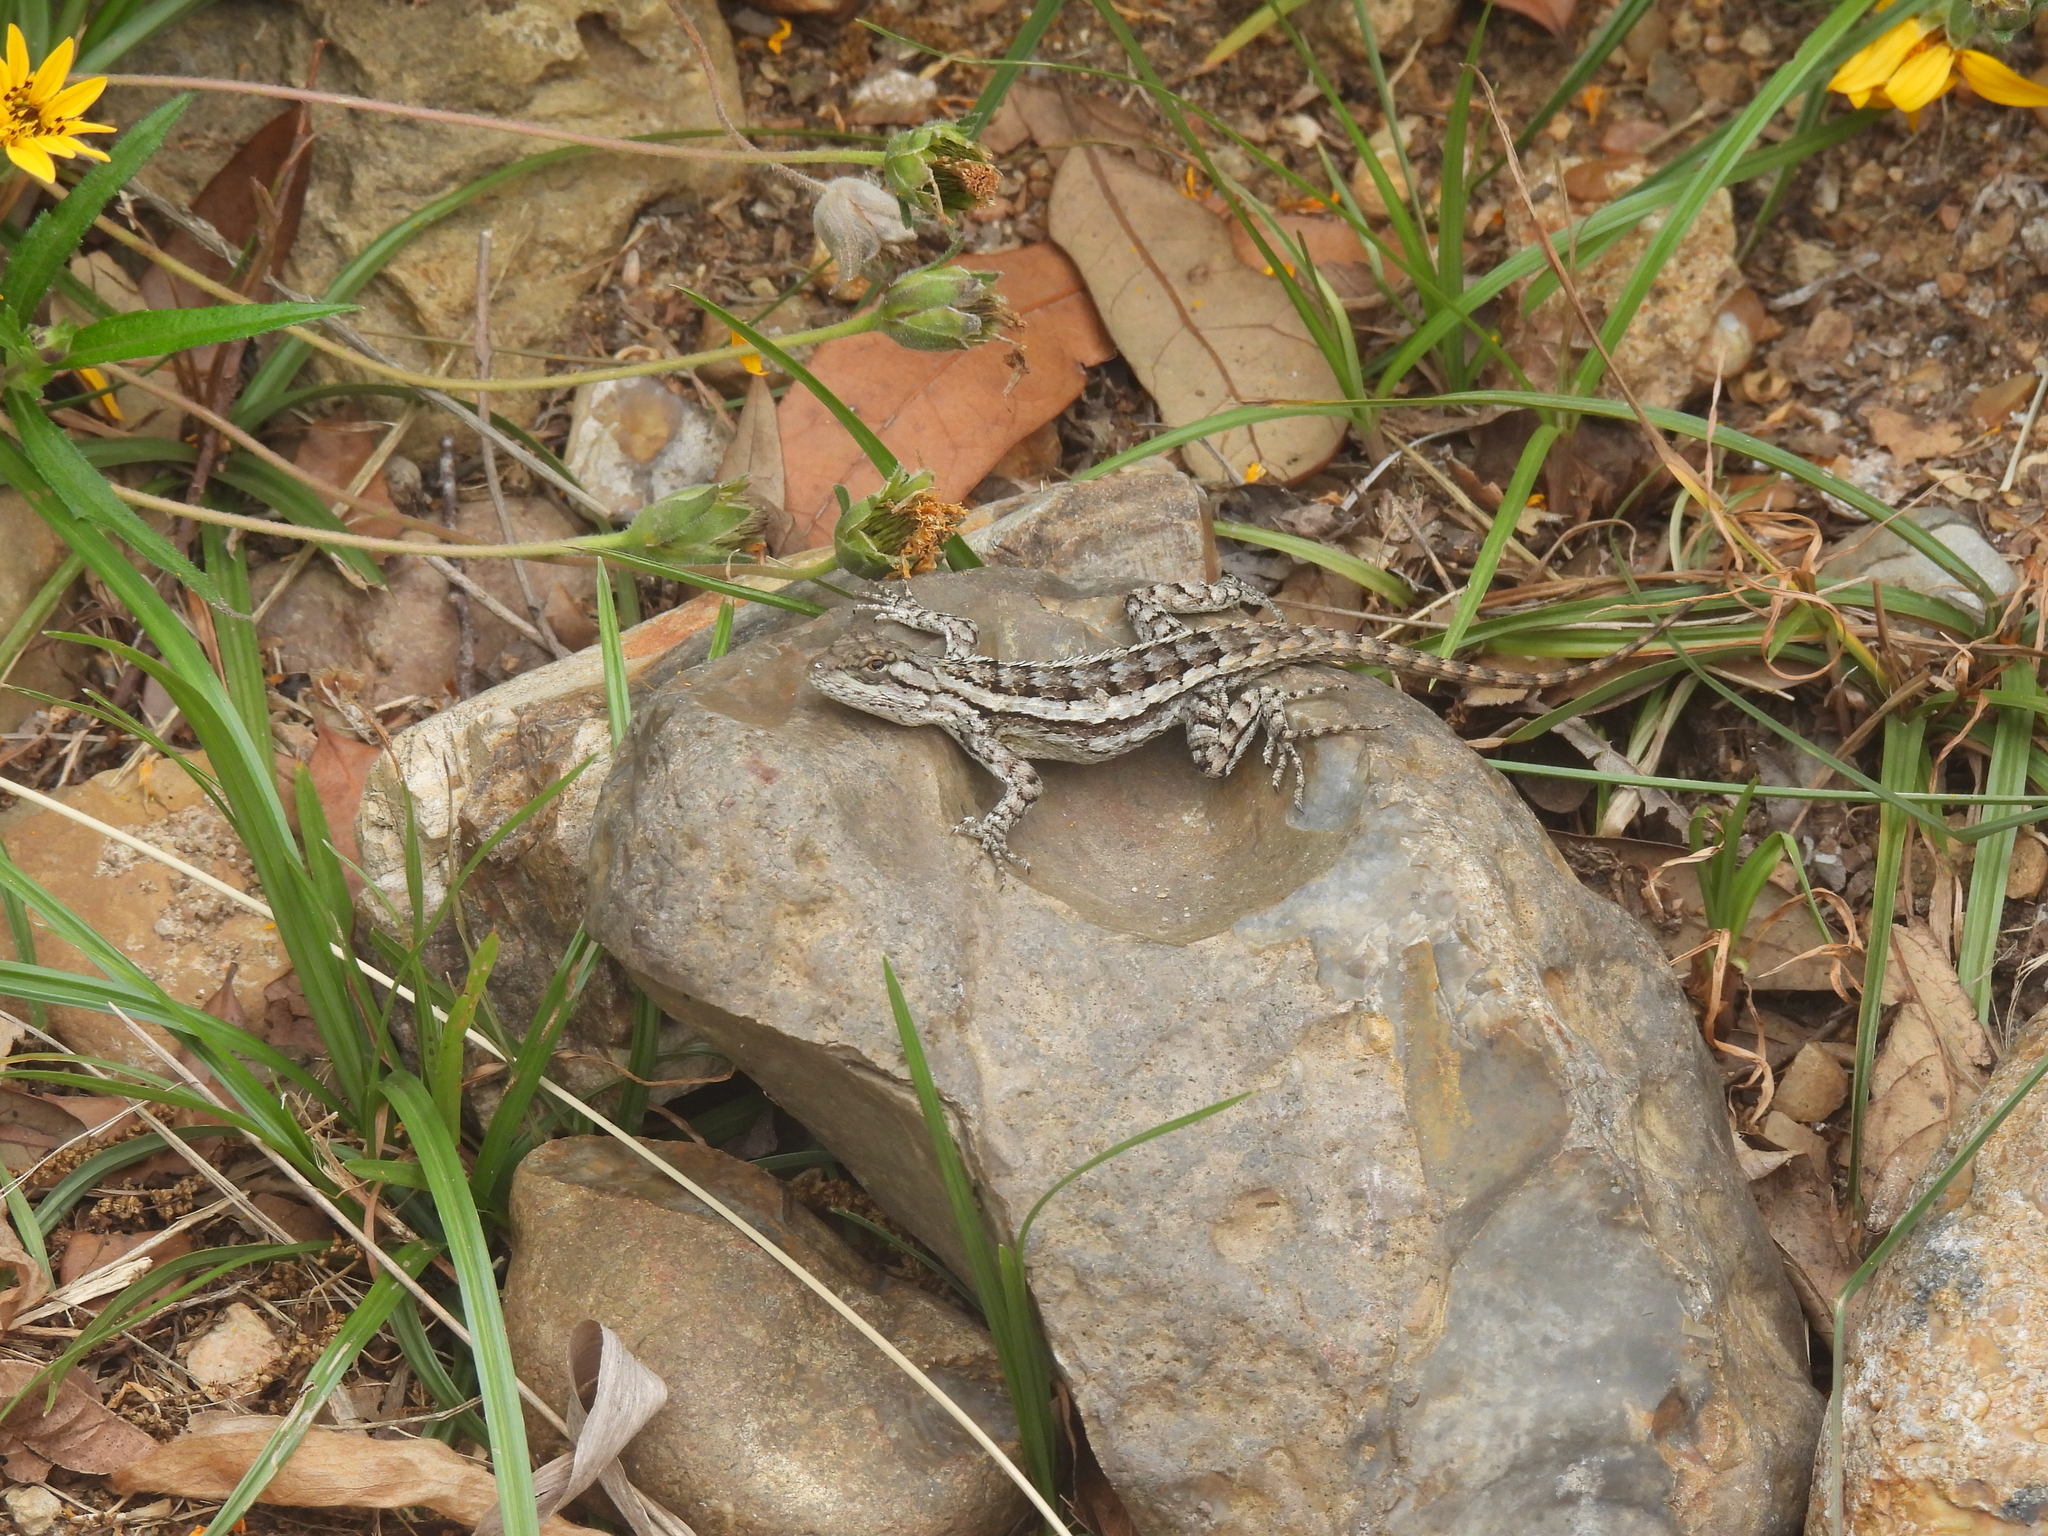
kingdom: Animalia
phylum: Chordata
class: Squamata
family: Phrynosomatidae
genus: Sceloporus
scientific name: Sceloporus olivaceus
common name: Texas spiny lizard
